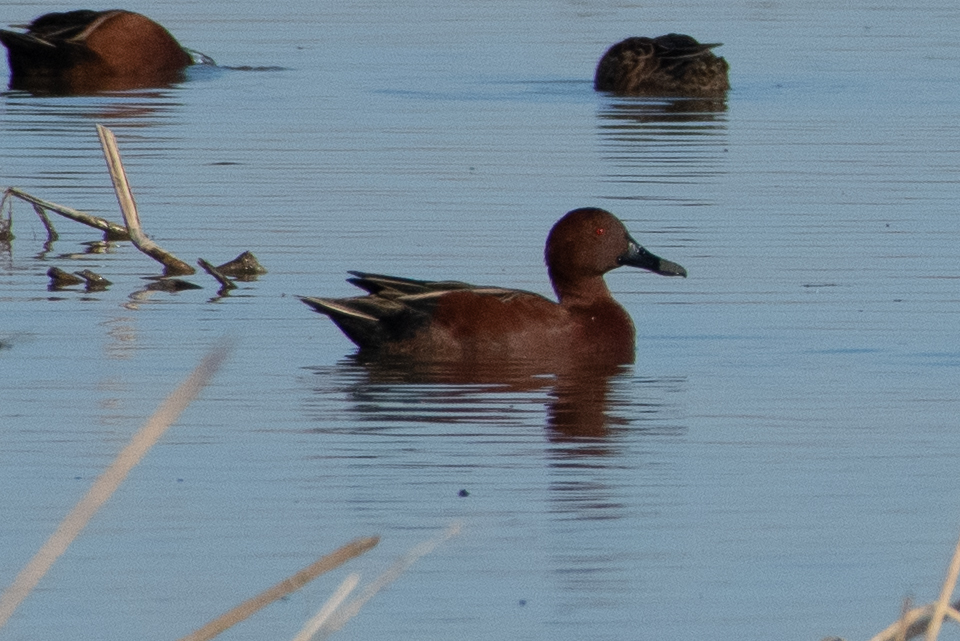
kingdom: Animalia
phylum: Chordata
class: Aves
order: Anseriformes
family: Anatidae
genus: Spatula
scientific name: Spatula cyanoptera
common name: Cinnamon teal
